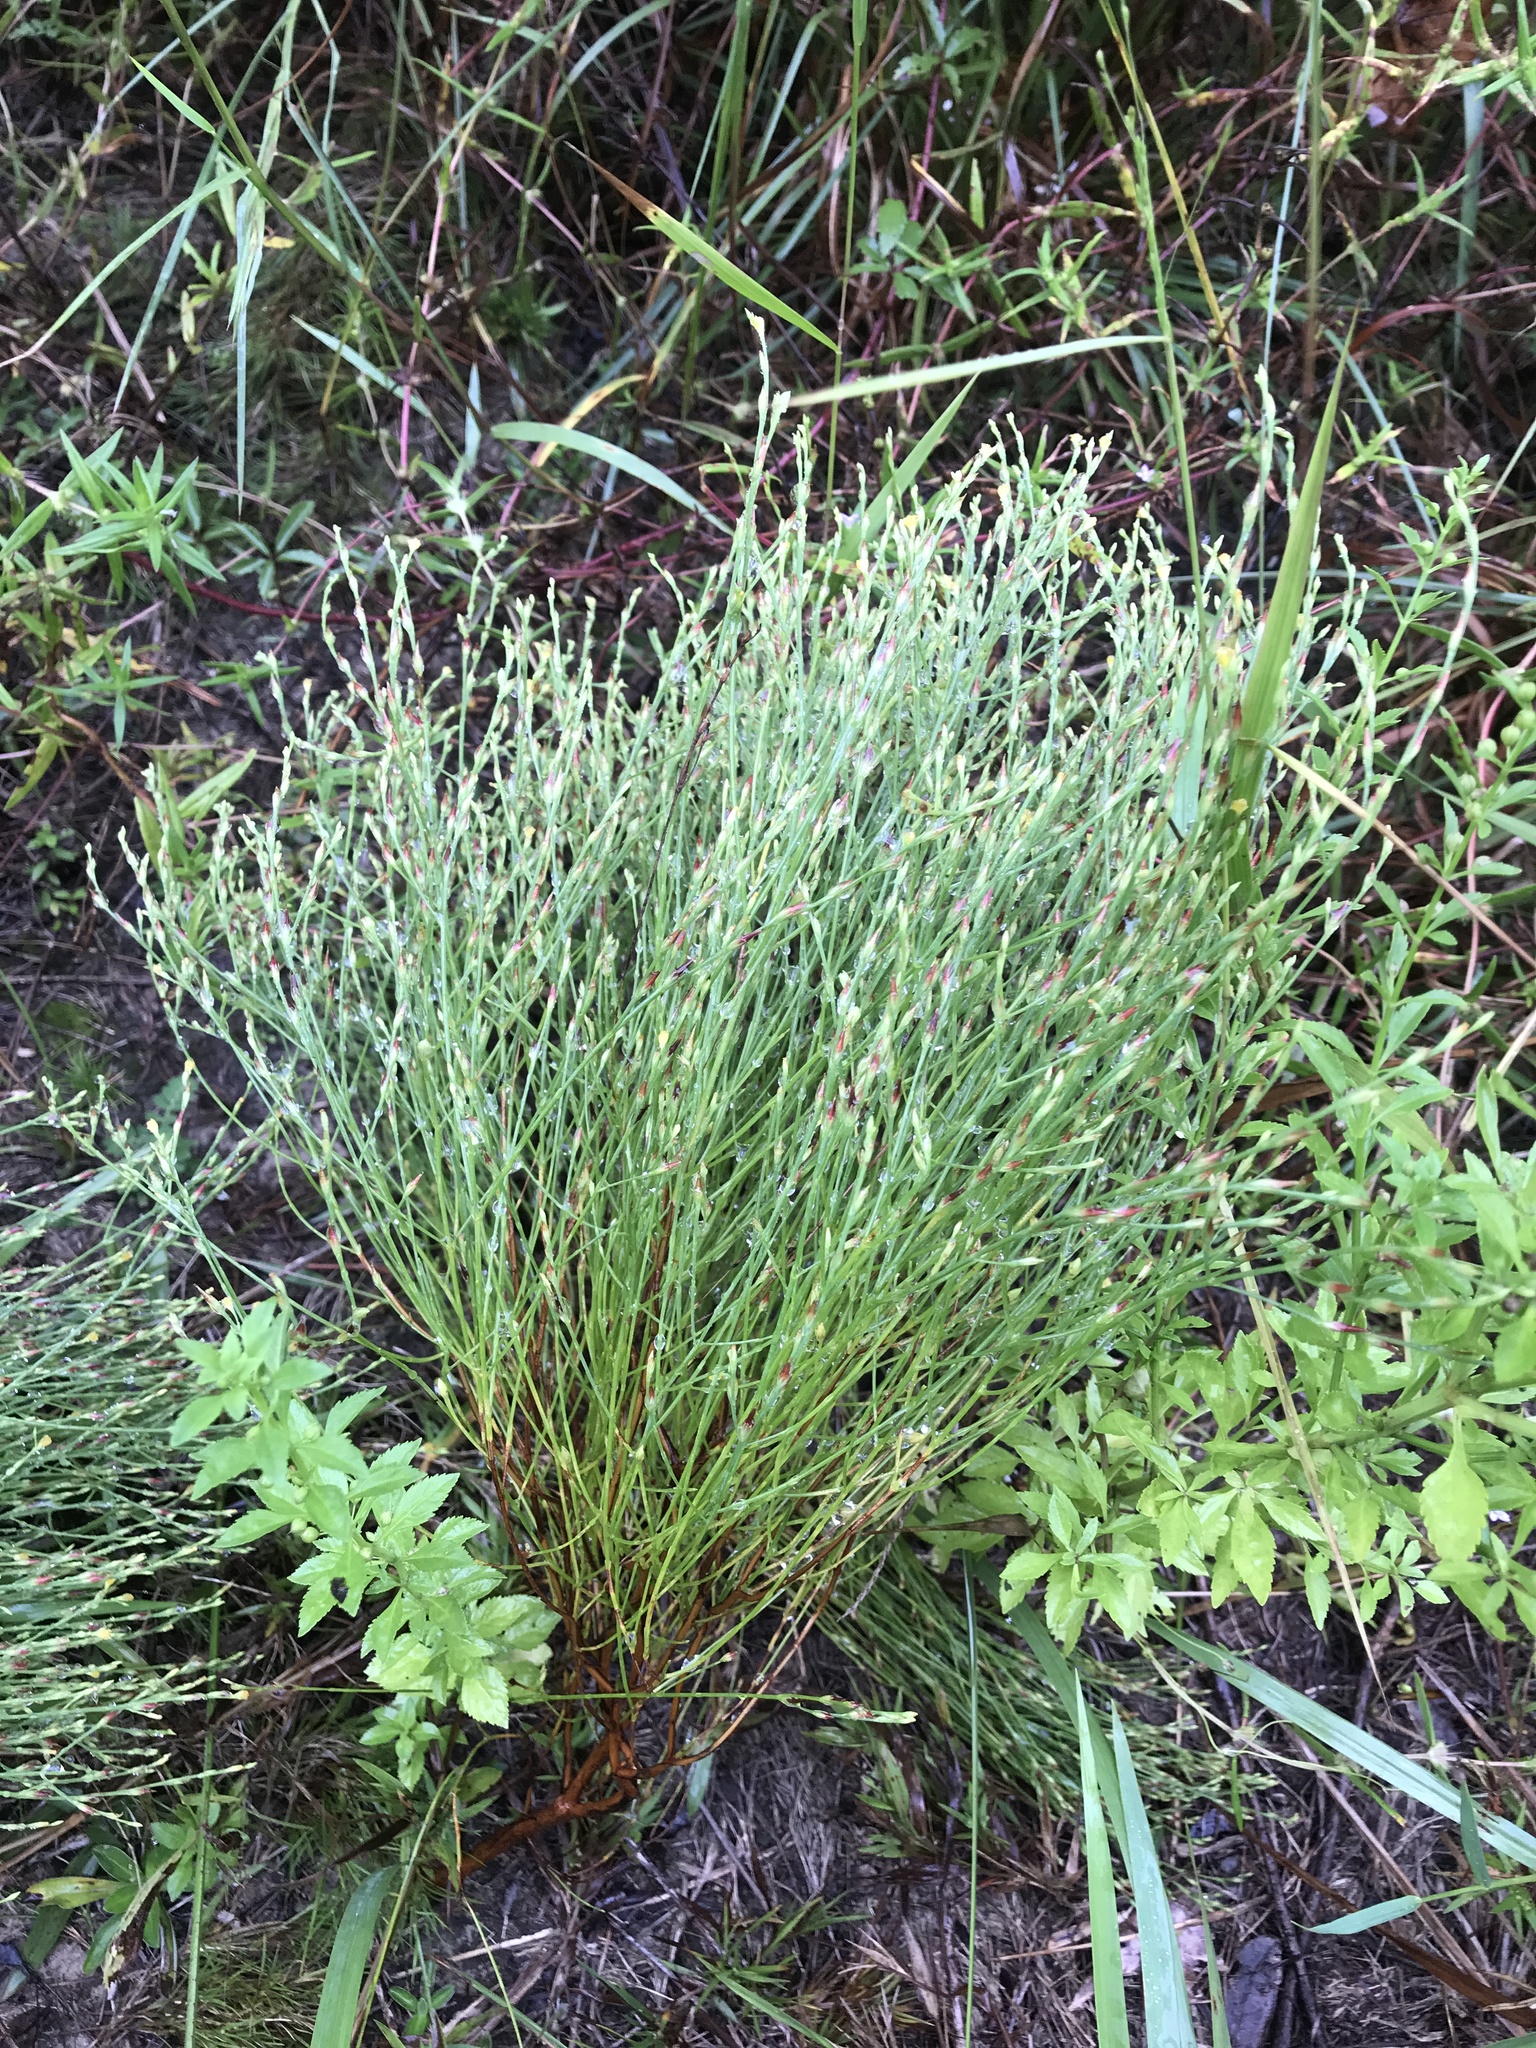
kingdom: Plantae
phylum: Tracheophyta
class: Magnoliopsida
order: Malpighiales
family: Hypericaceae
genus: Hypericum
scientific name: Hypericum gentianoides
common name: Gentian-leaved st. john's-wort
